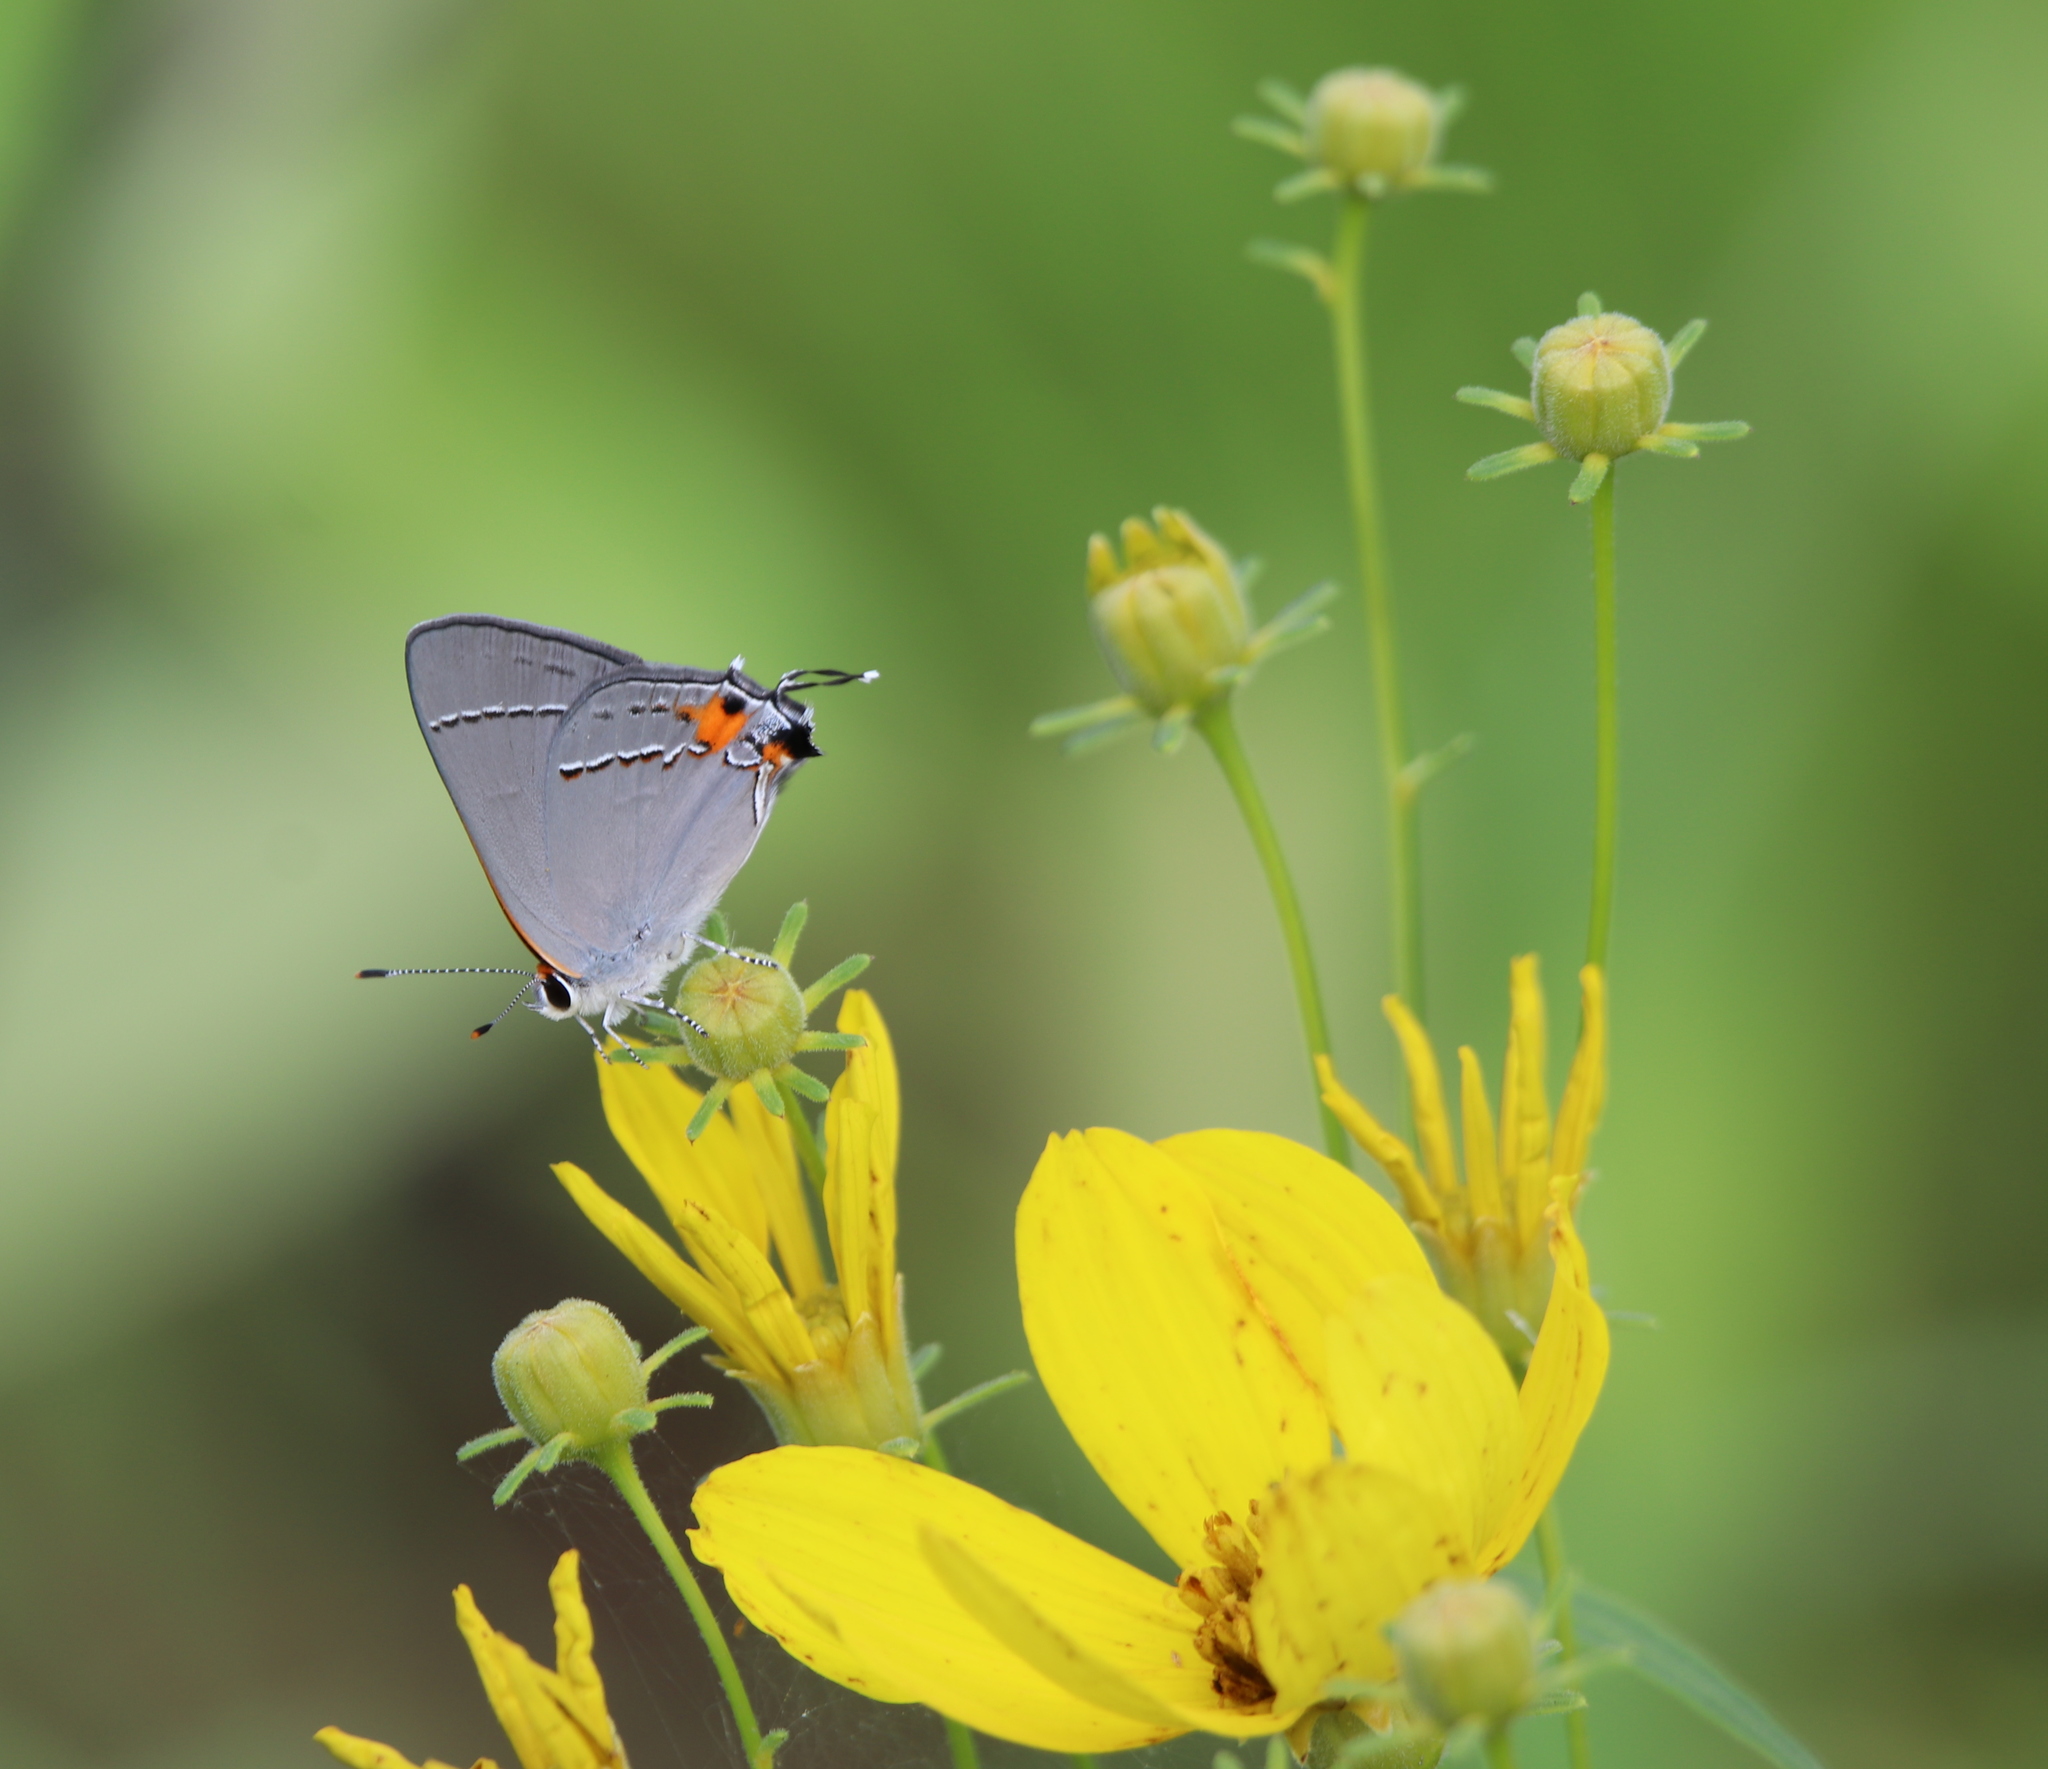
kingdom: Animalia
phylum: Arthropoda
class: Insecta
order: Lepidoptera
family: Lycaenidae
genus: Strymon
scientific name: Strymon melinus
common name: Gray hairstreak
